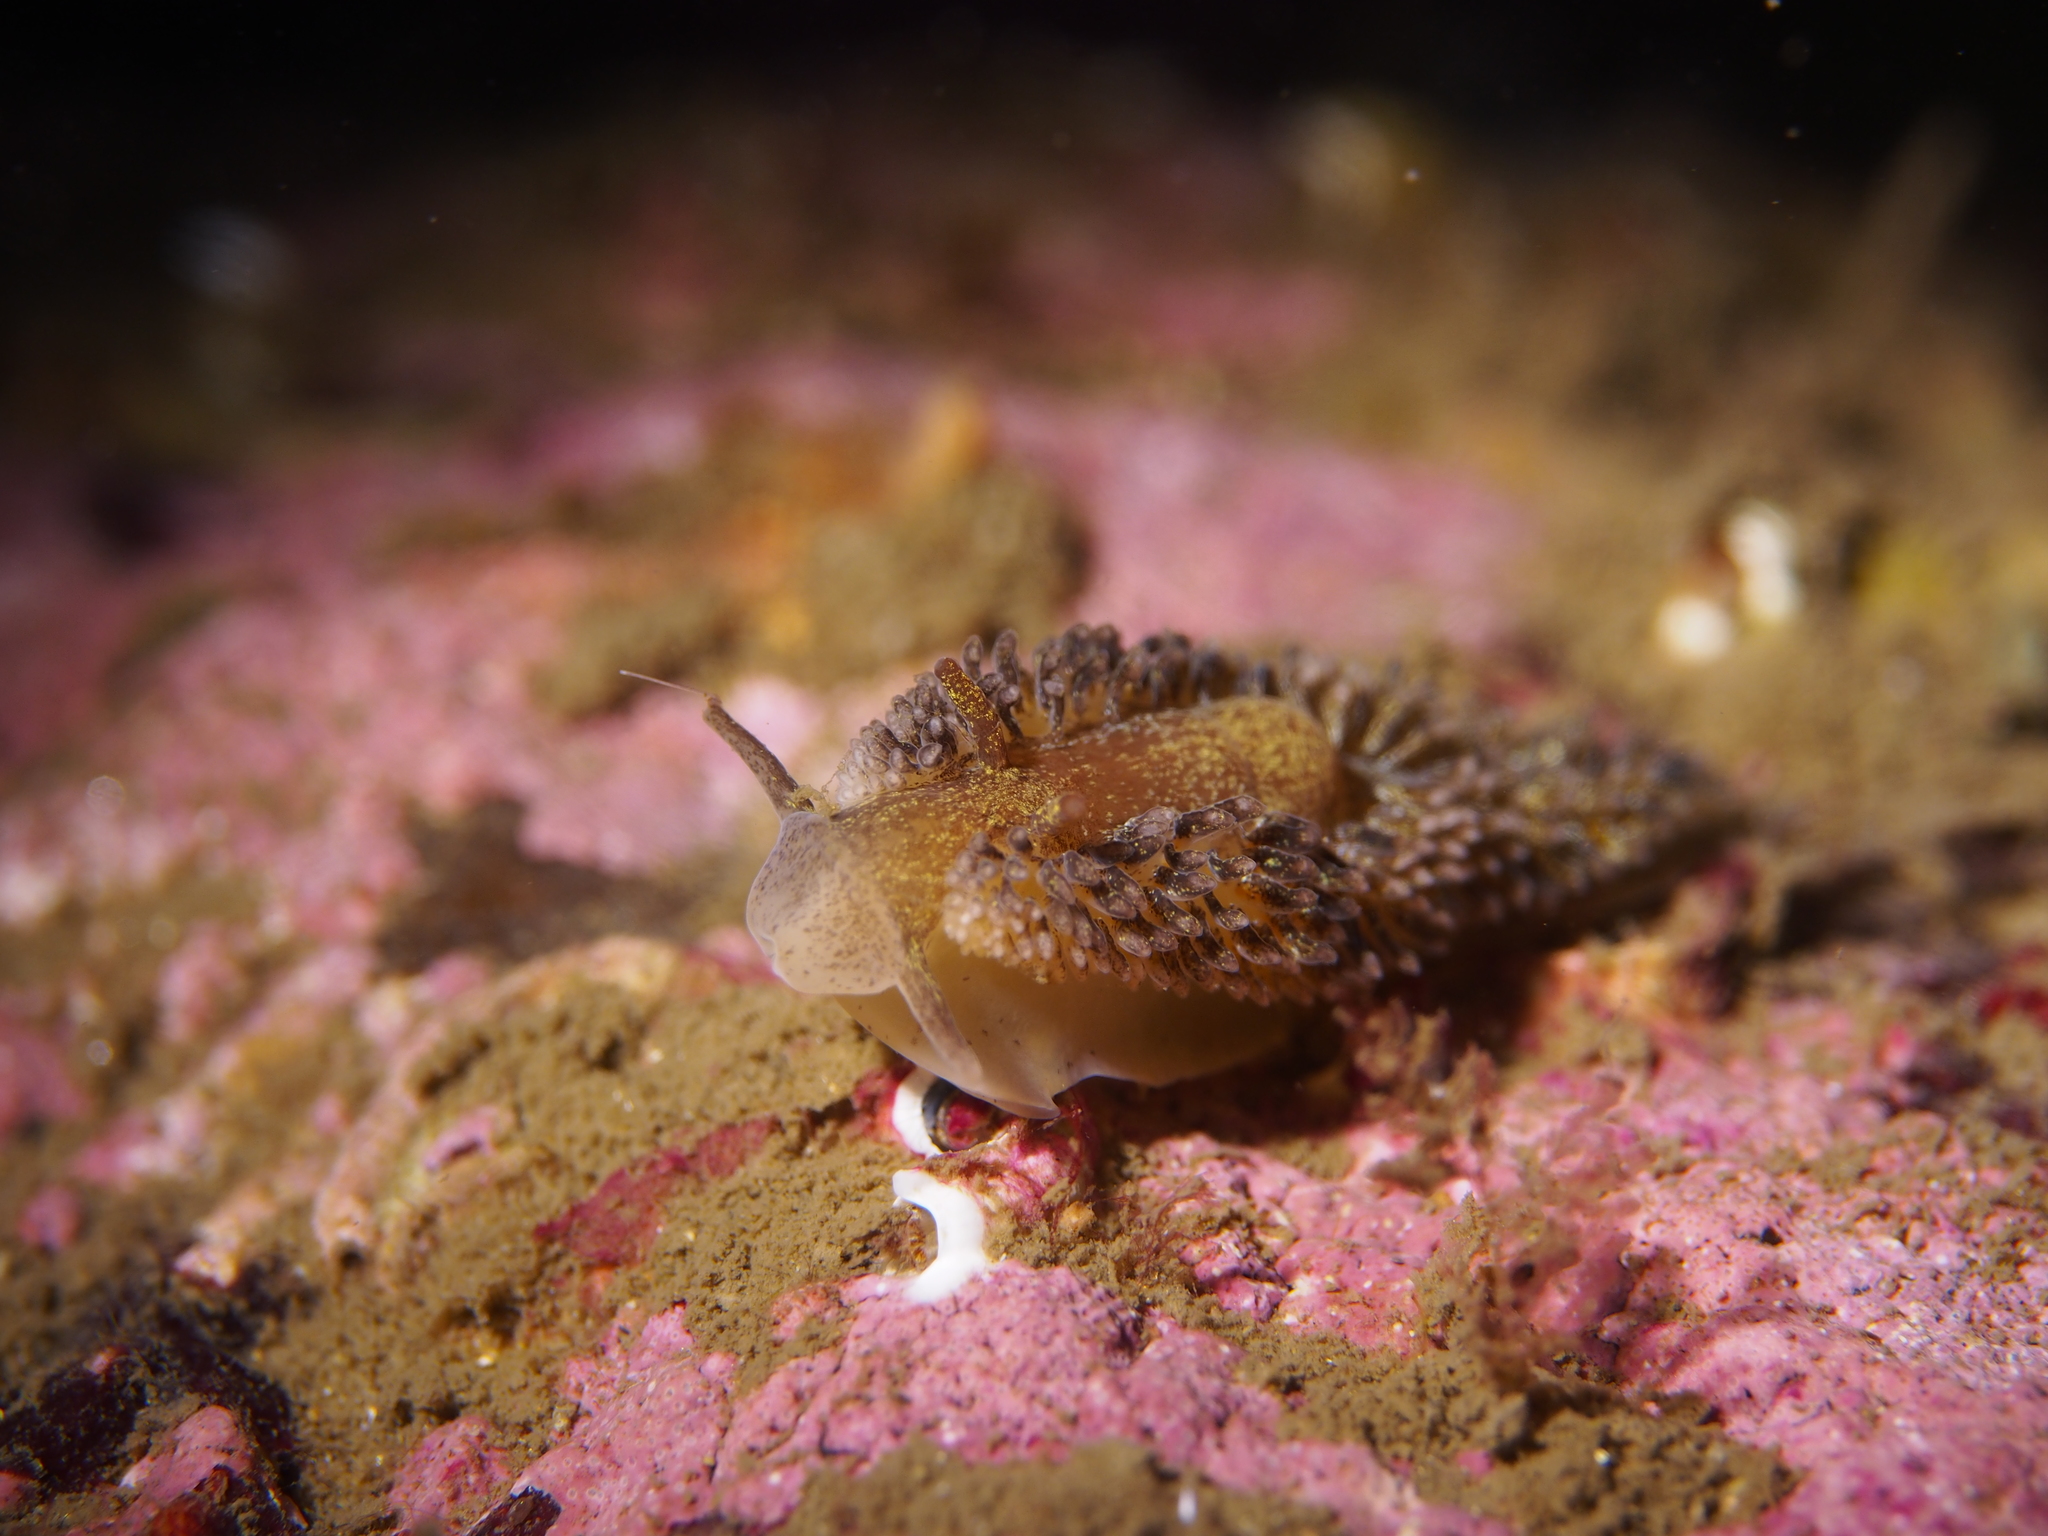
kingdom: Animalia
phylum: Mollusca
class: Gastropoda
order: Nudibranchia
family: Aeolidiidae
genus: Aeolidia
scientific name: Aeolidia papillosa
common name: Common grey sea slug
